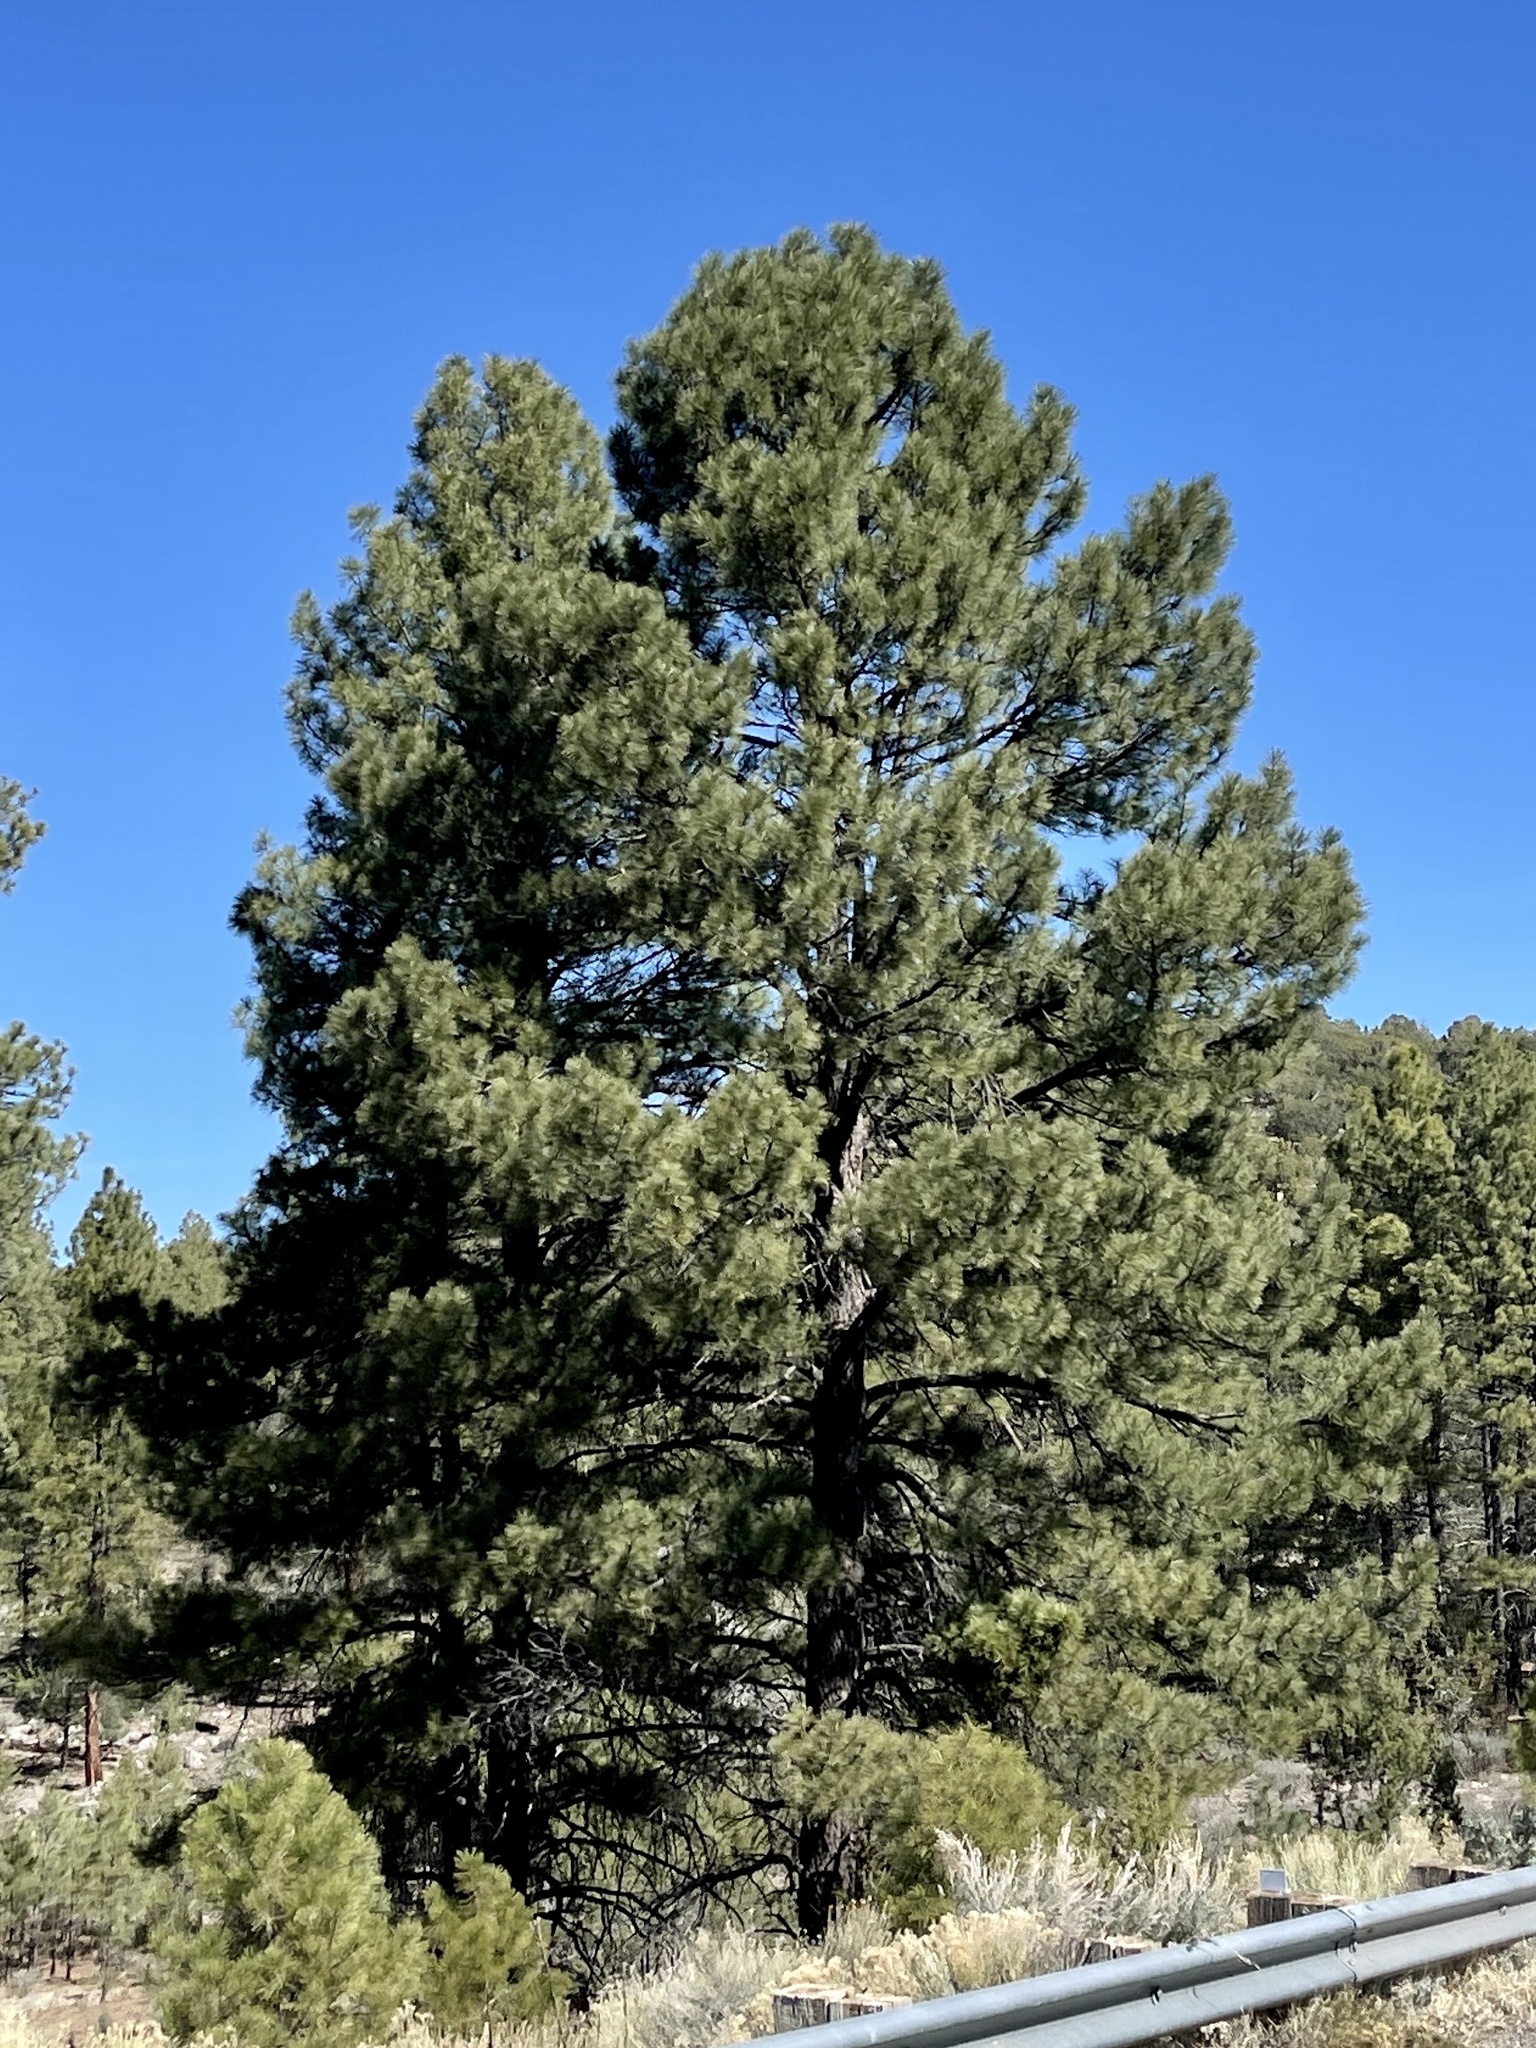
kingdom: Plantae
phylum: Tracheophyta
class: Pinopsida
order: Pinales
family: Pinaceae
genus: Pinus
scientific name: Pinus ponderosa
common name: Western yellow-pine
